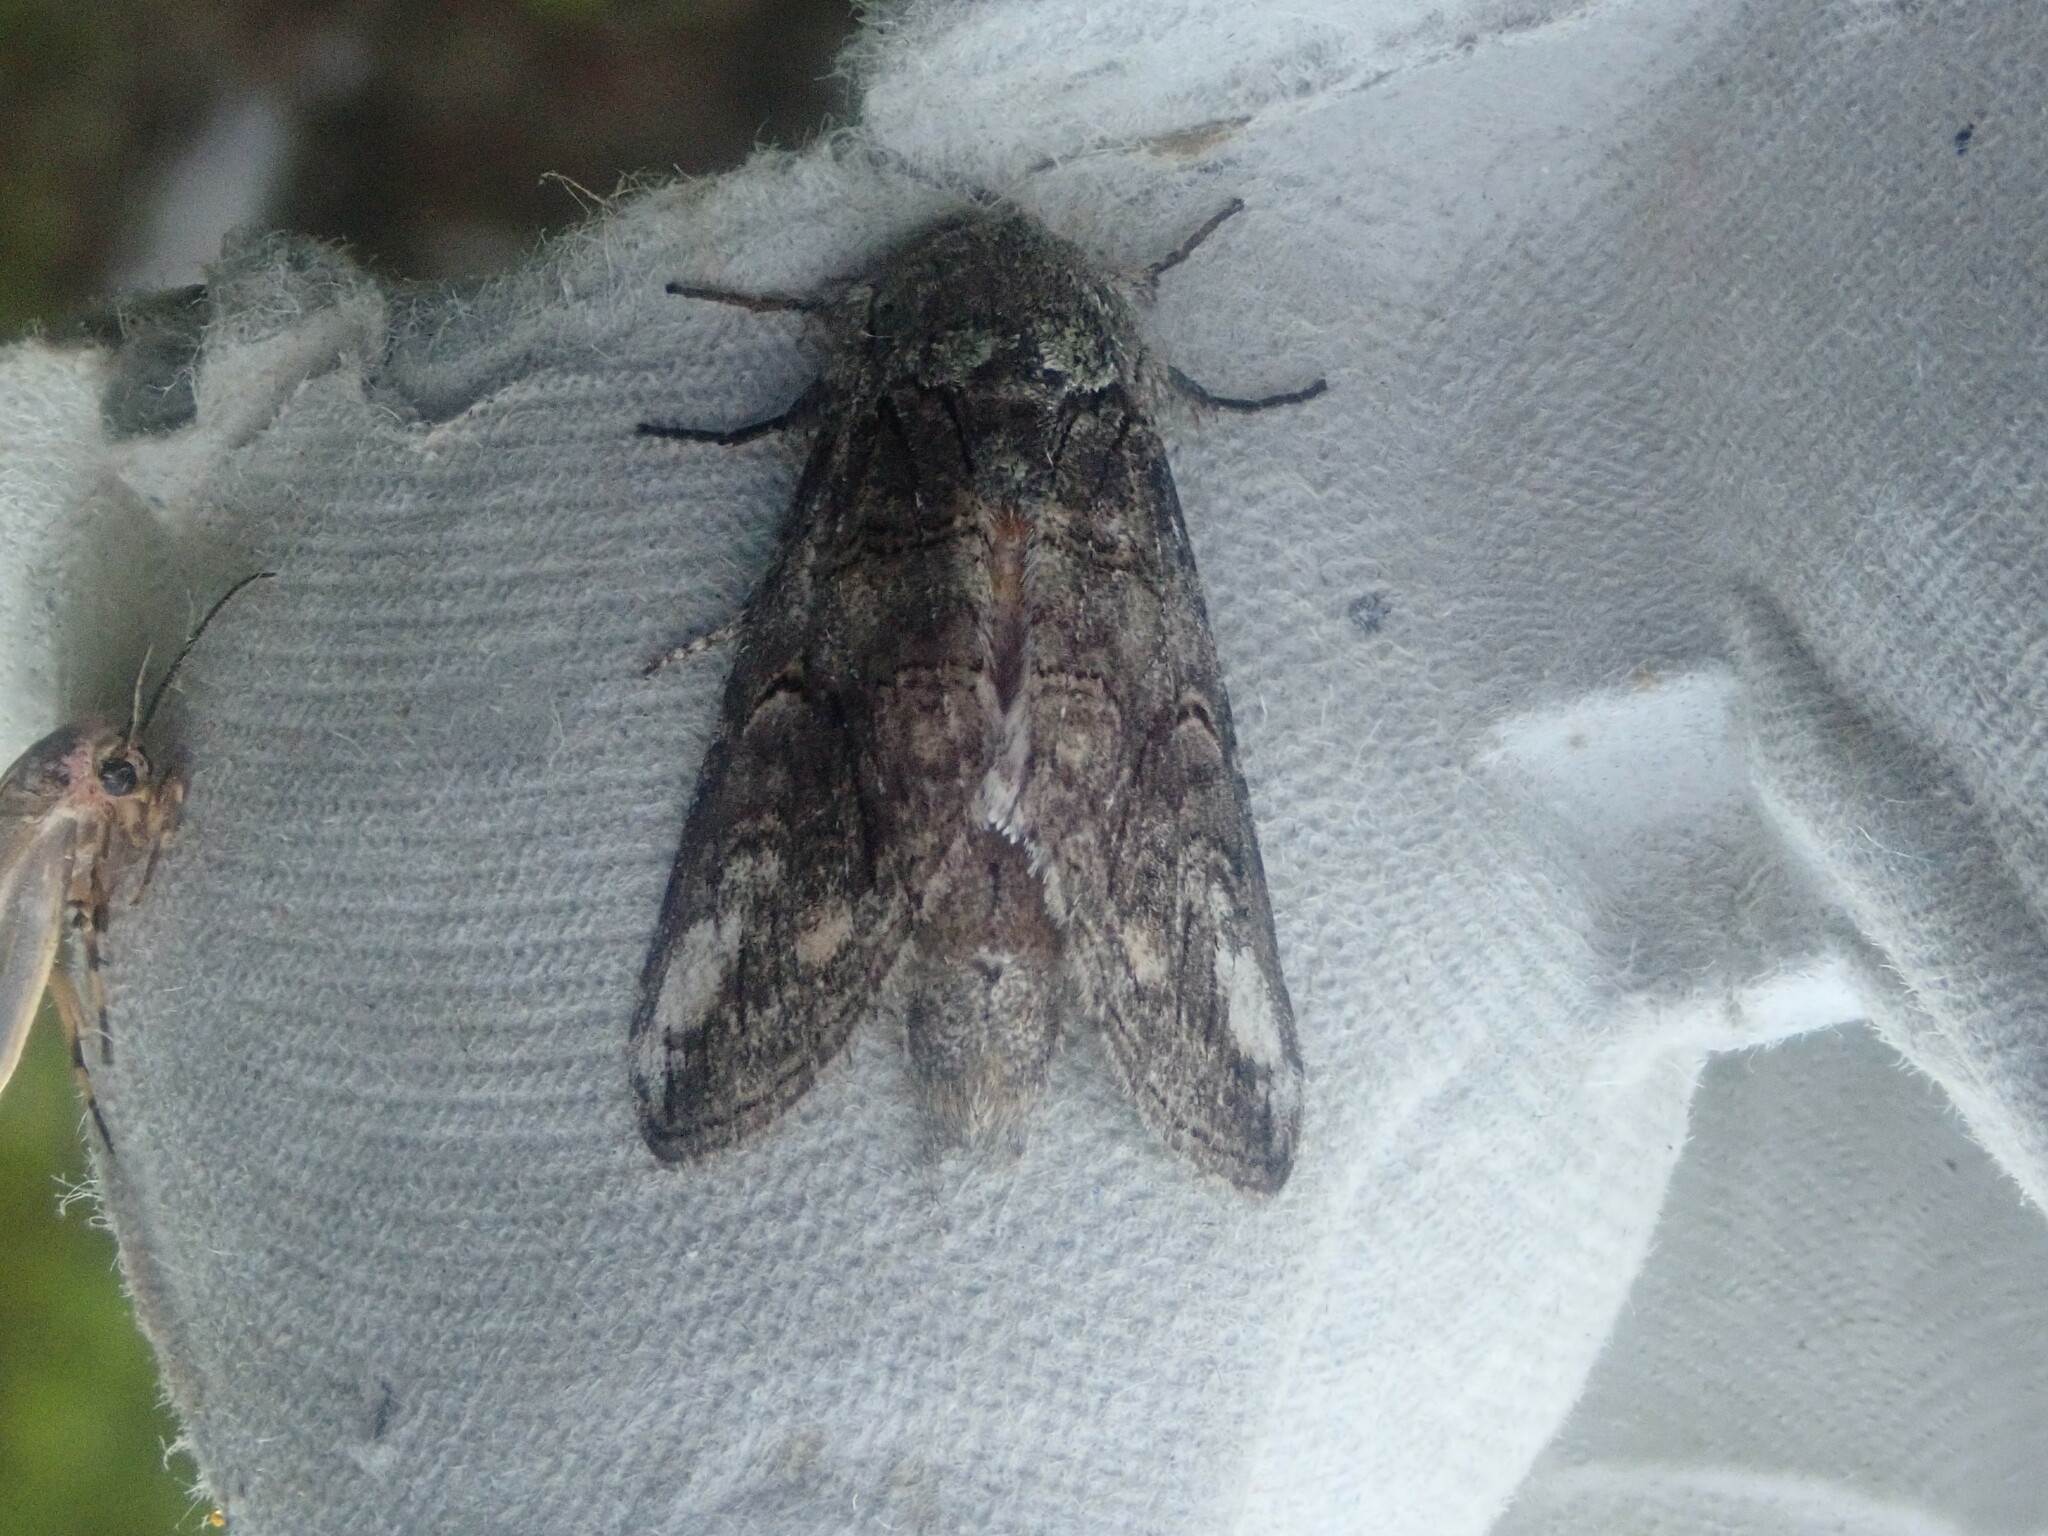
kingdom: Animalia
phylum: Arthropoda
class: Insecta
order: Lepidoptera
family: Notodontidae
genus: Heterocampa
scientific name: Heterocampa obliqua
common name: Oblique heterocampa
